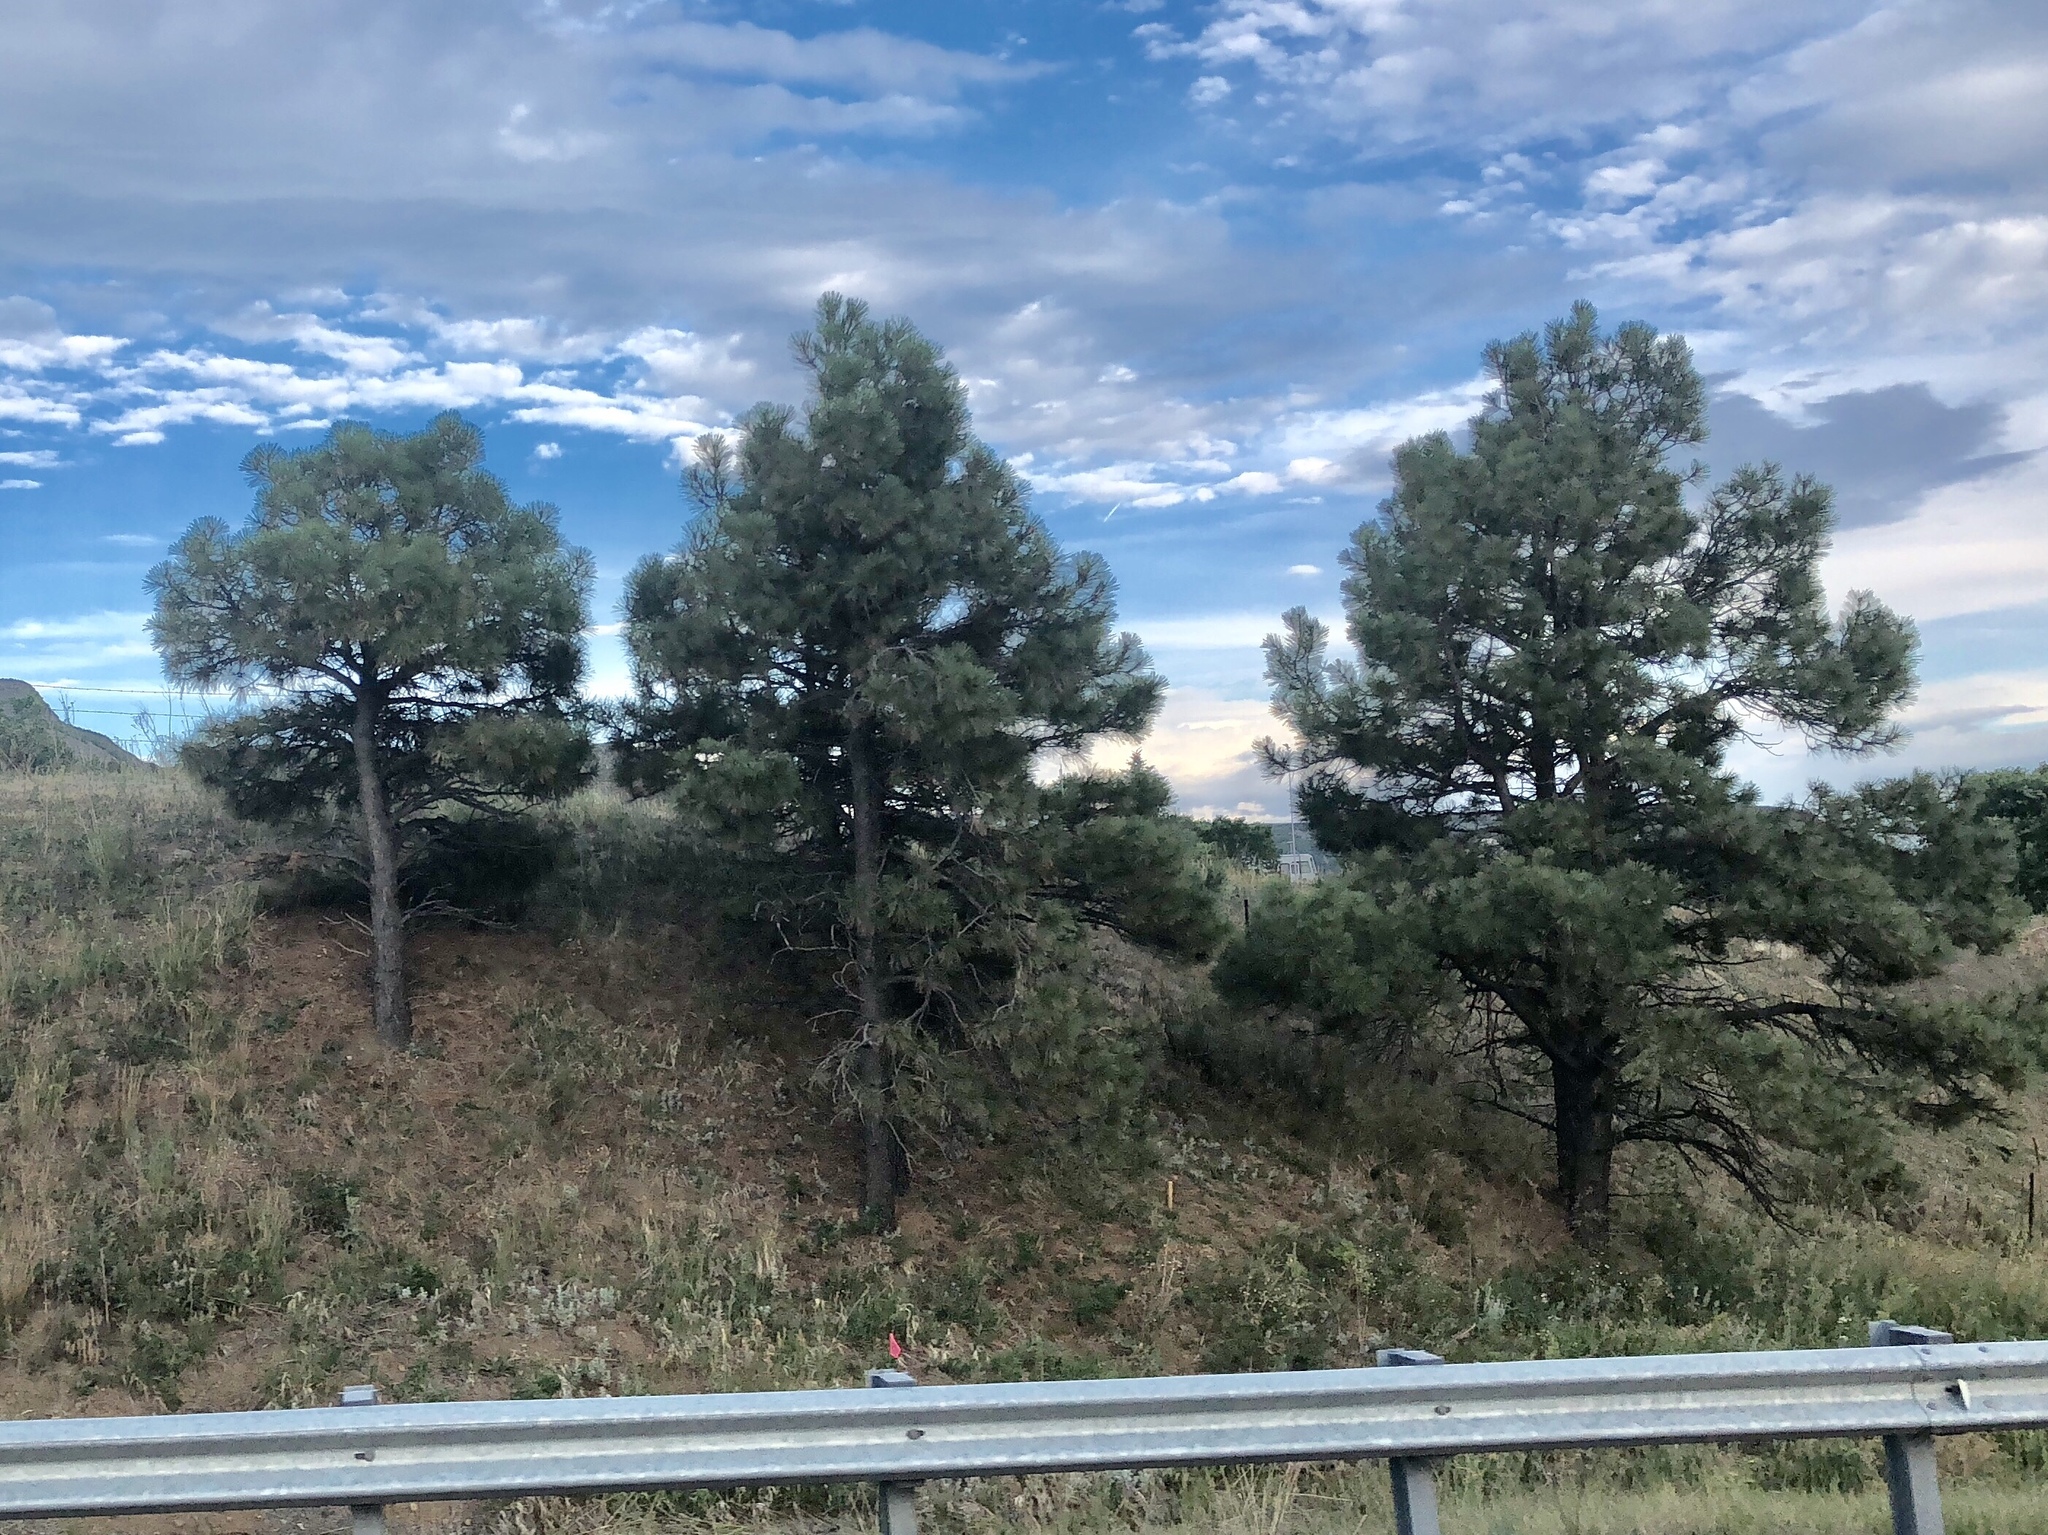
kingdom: Plantae
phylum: Tracheophyta
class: Pinopsida
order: Pinales
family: Pinaceae
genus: Pinus
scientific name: Pinus ponderosa
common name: Western yellow-pine
